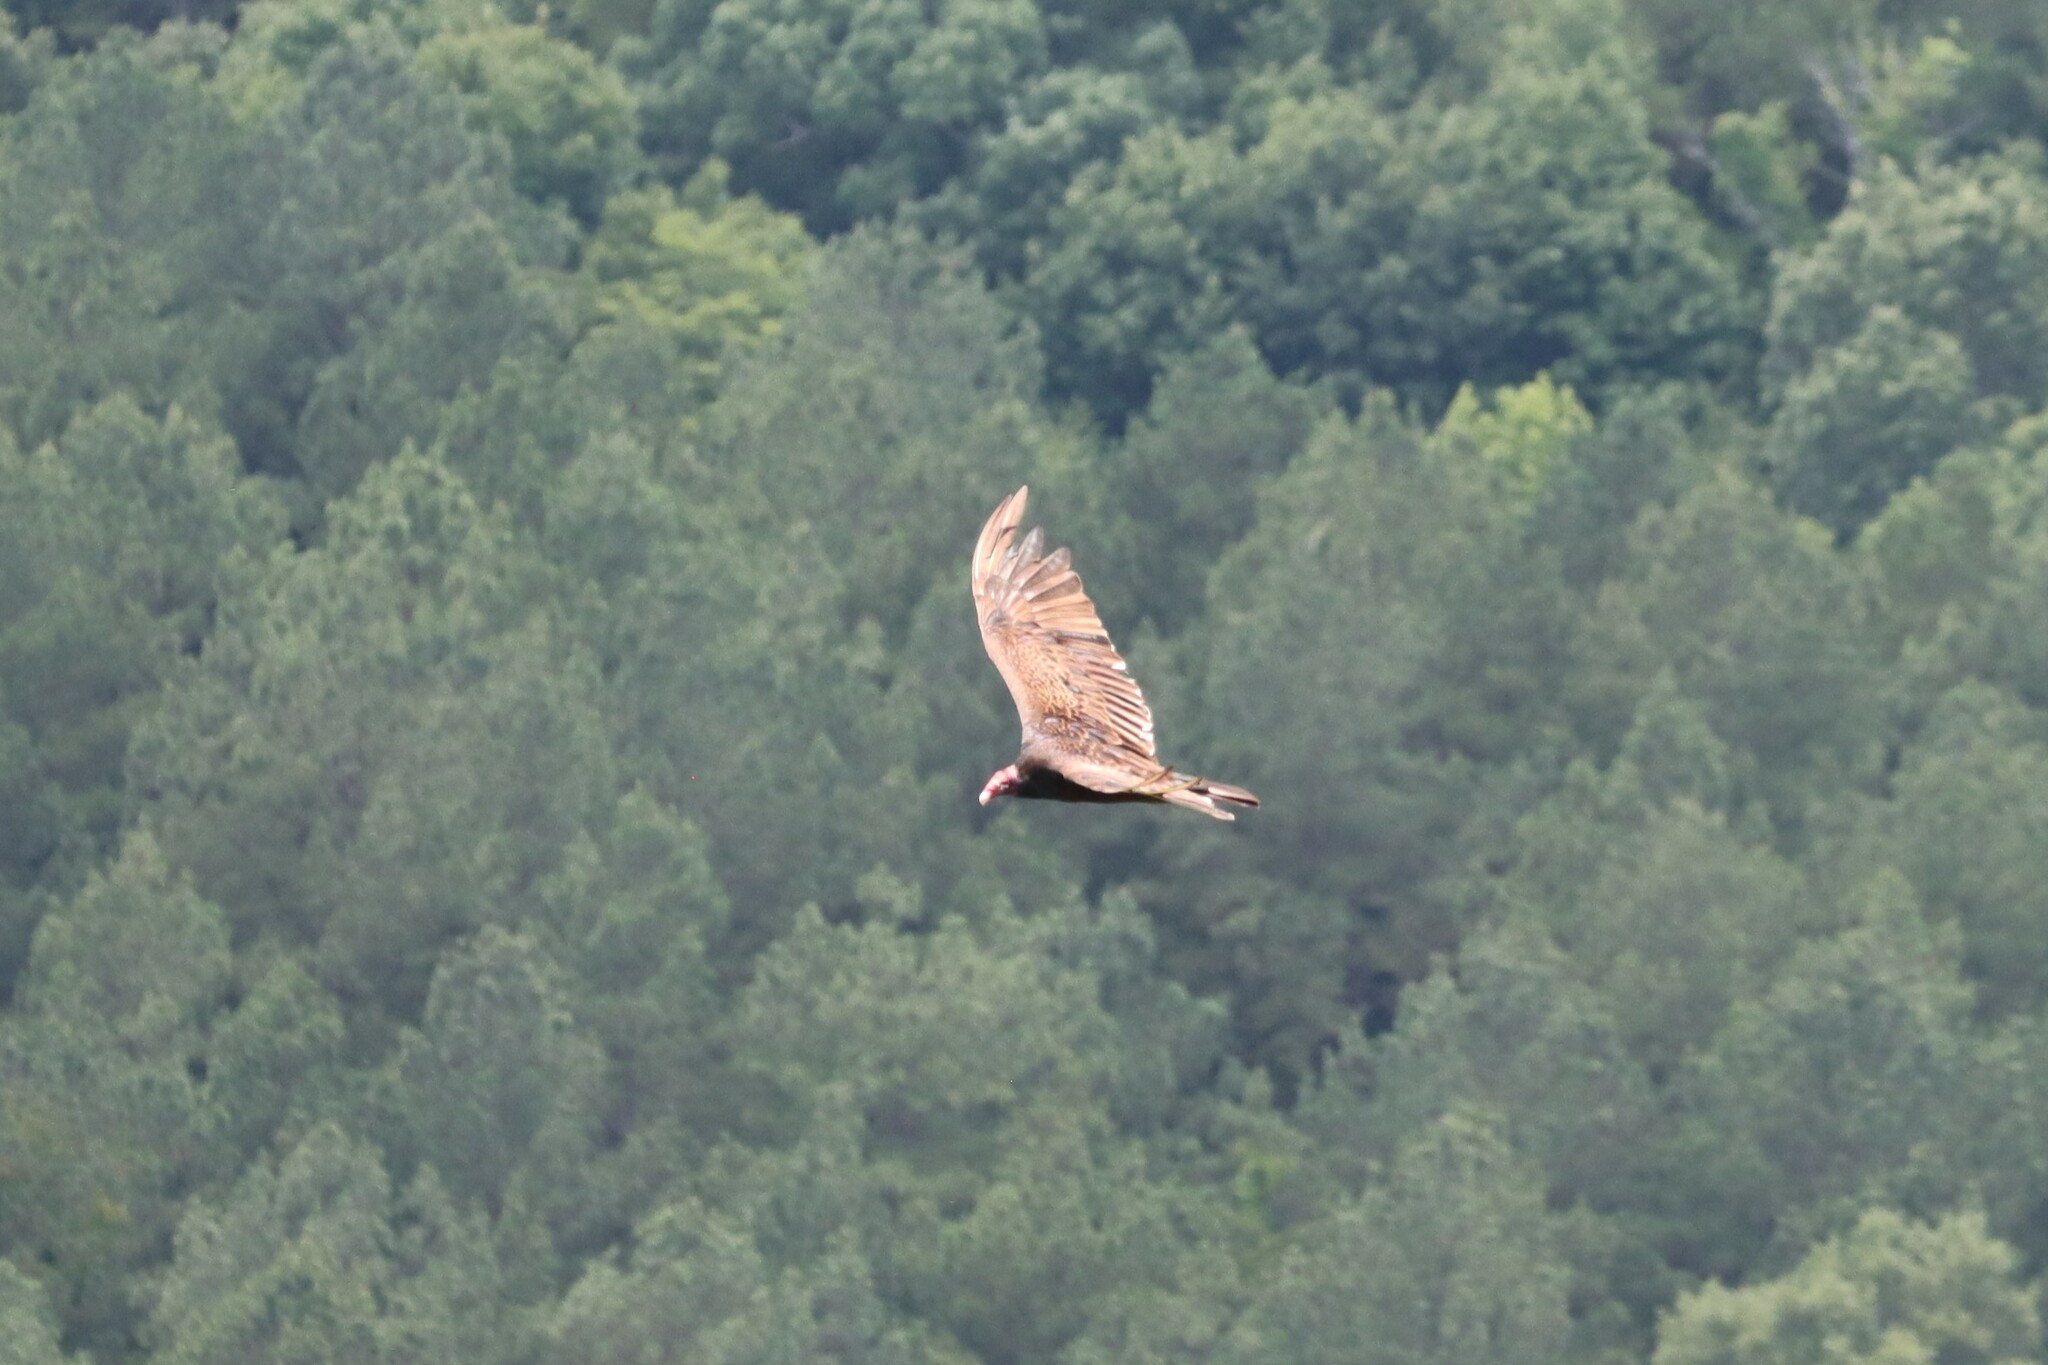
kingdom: Animalia
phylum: Chordata
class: Aves
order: Accipitriformes
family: Cathartidae
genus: Cathartes
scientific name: Cathartes aura
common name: Turkey vulture
